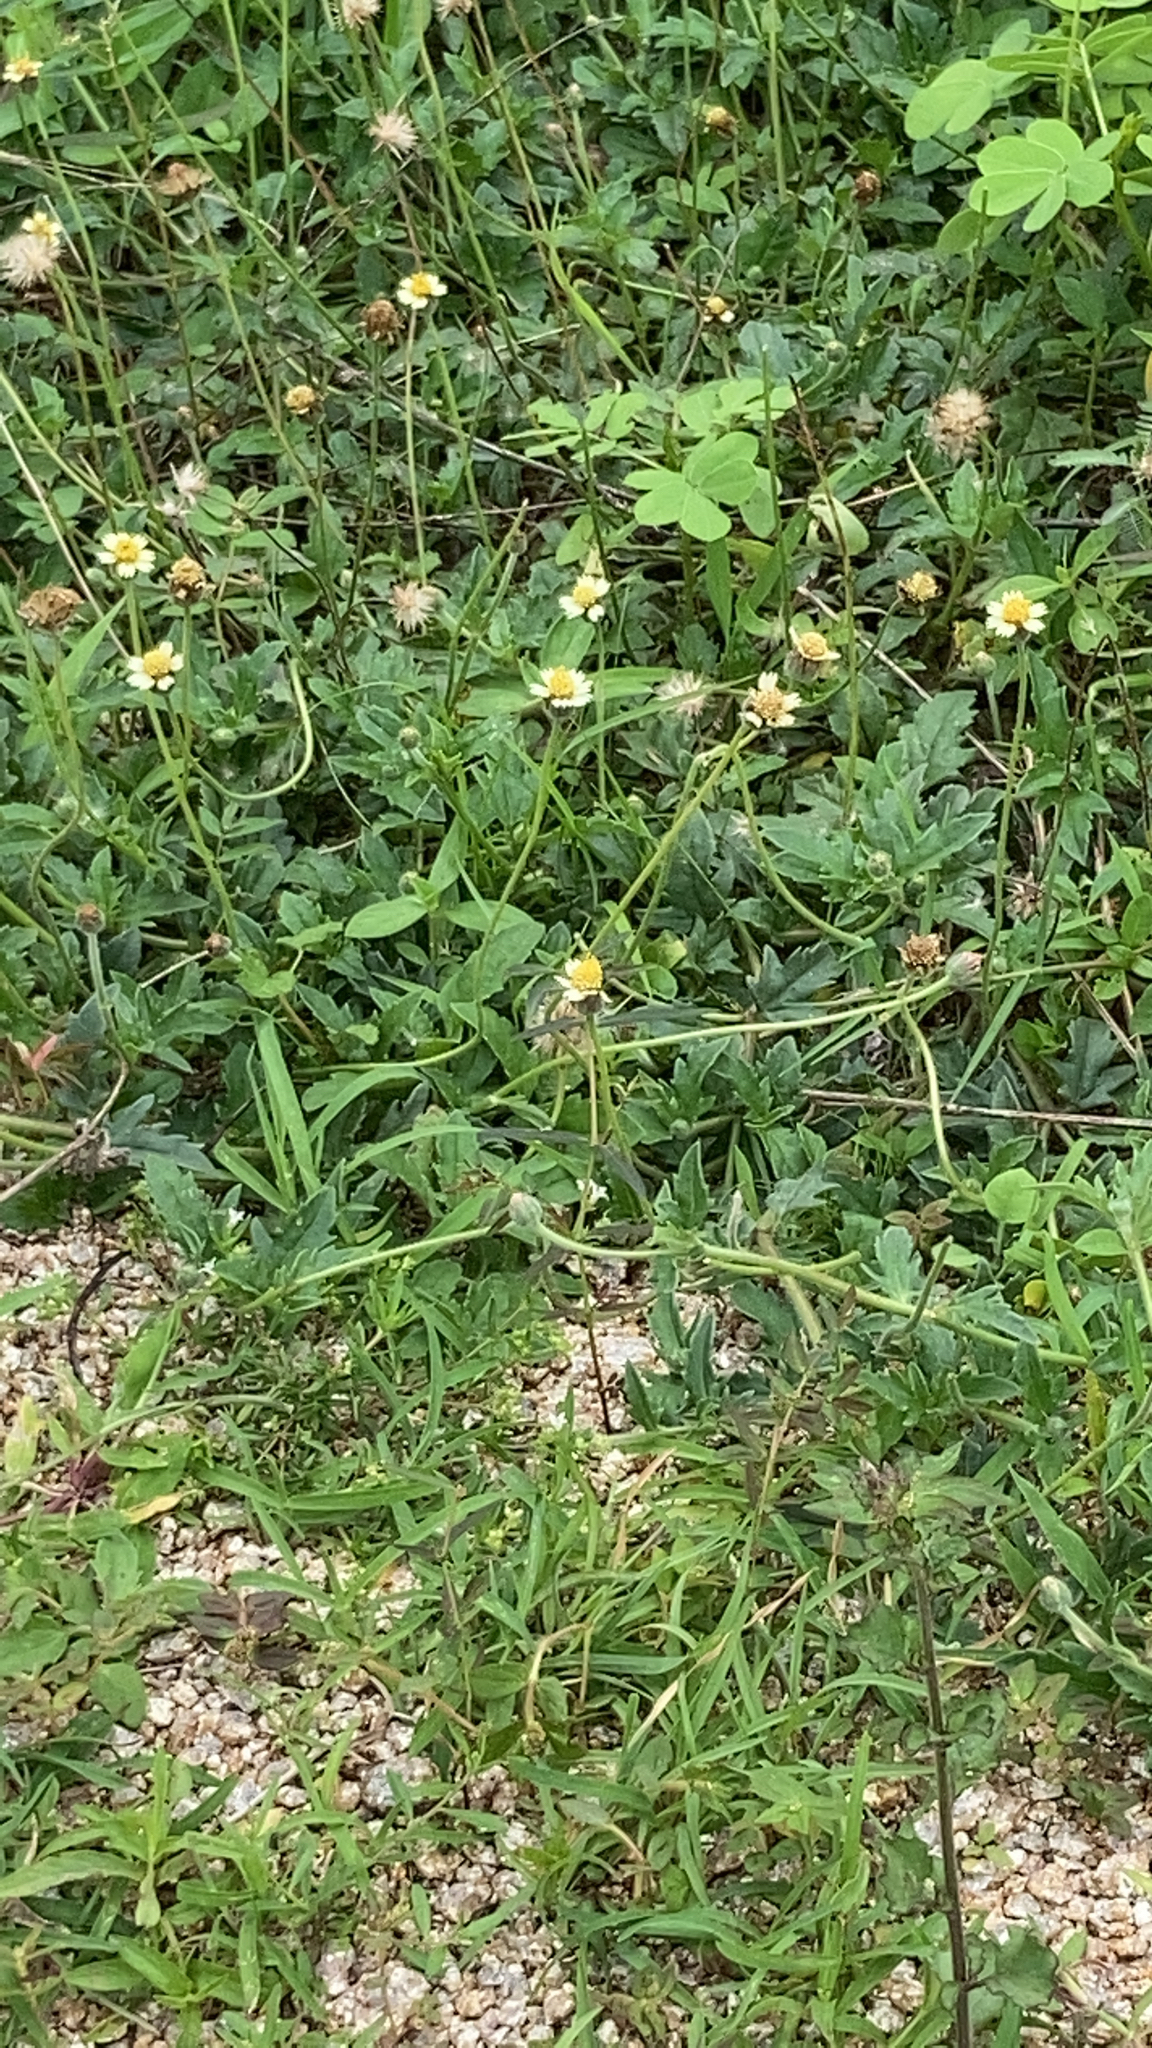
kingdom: Plantae
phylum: Tracheophyta
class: Magnoliopsida
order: Asterales
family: Asteraceae
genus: Tridax
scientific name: Tridax procumbens
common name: Coatbuttons
